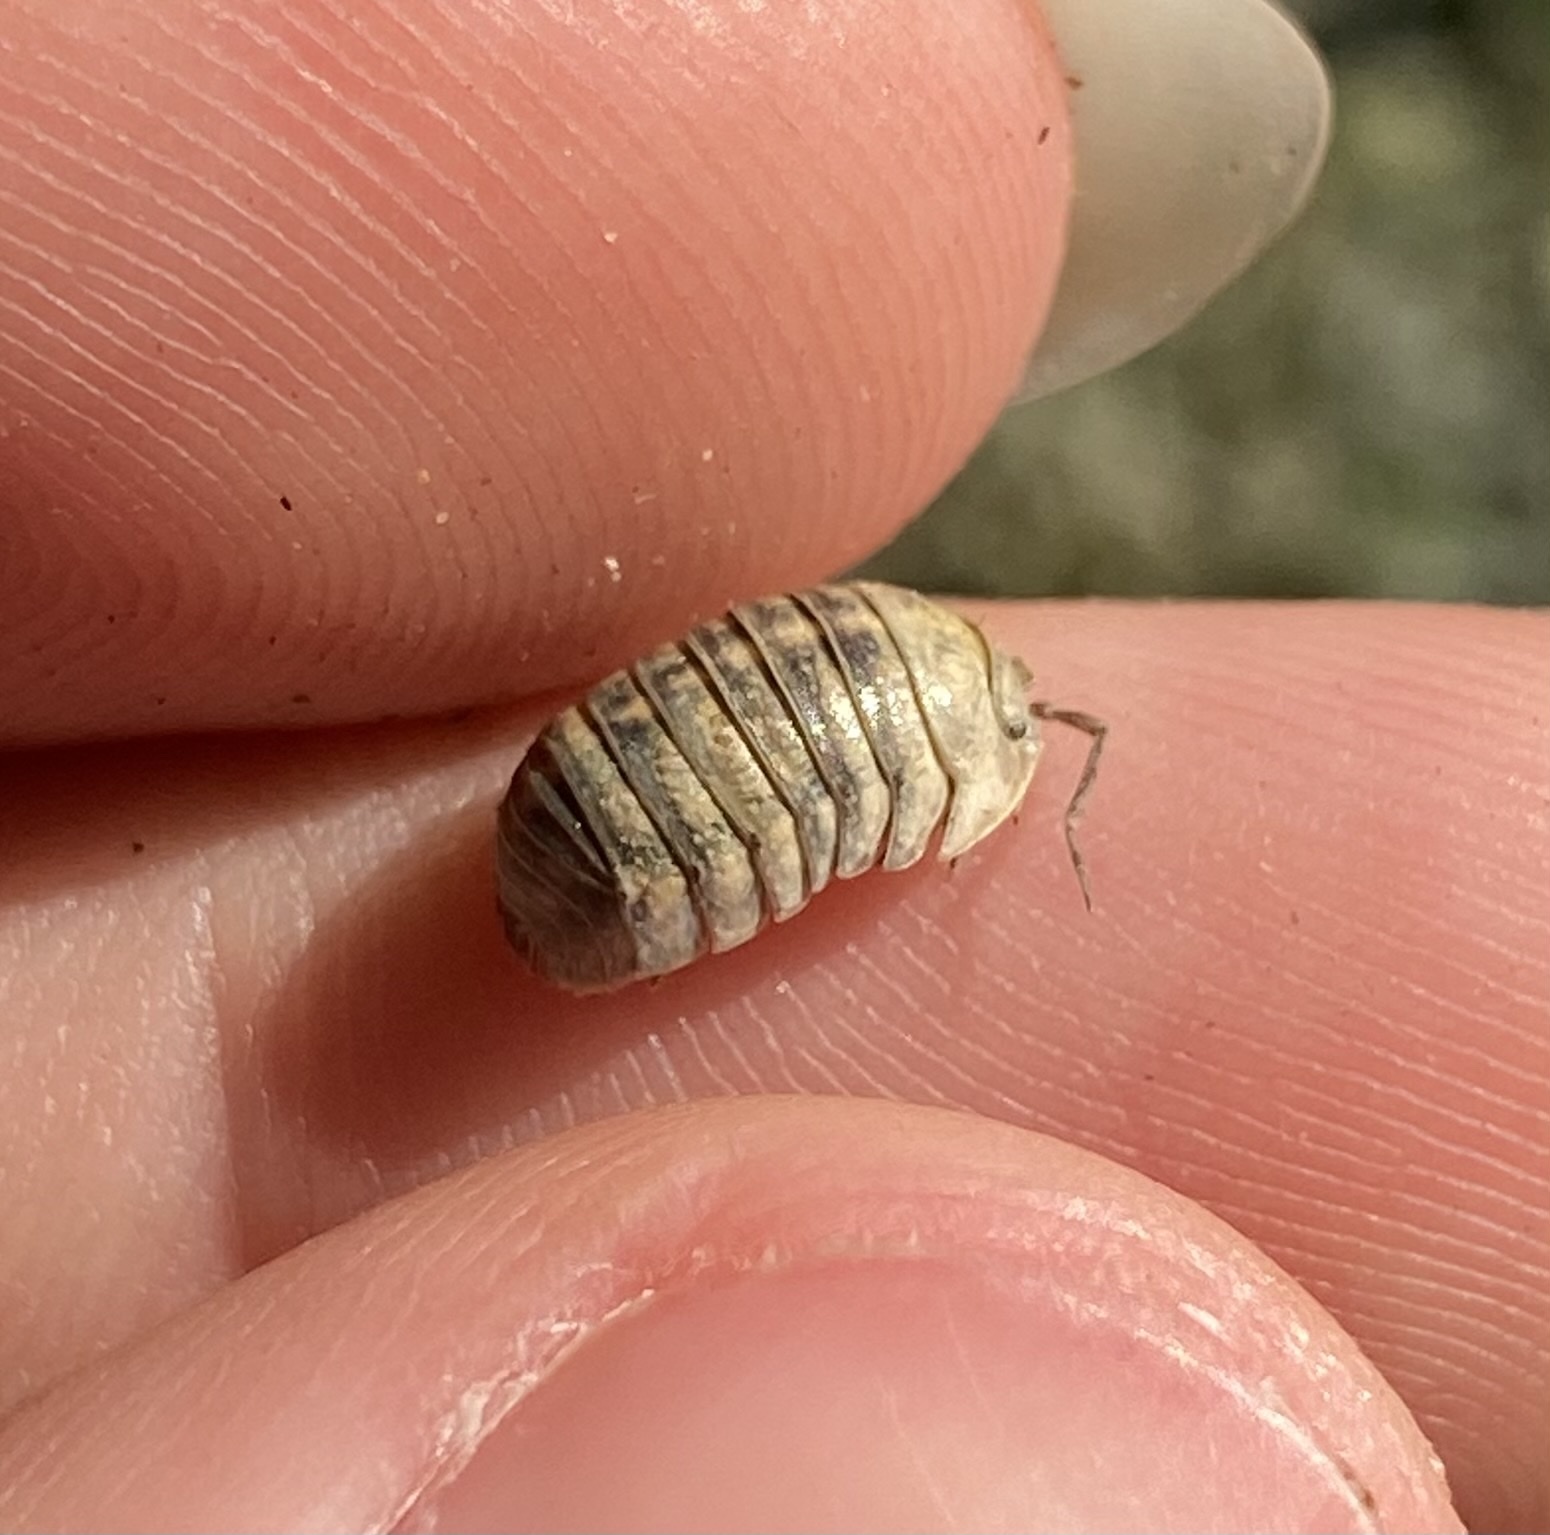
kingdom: Animalia
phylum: Arthropoda
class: Malacostraca
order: Isopoda
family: Armadillidiidae
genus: Armadillidium
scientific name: Armadillidium nasatum
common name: Isopod
